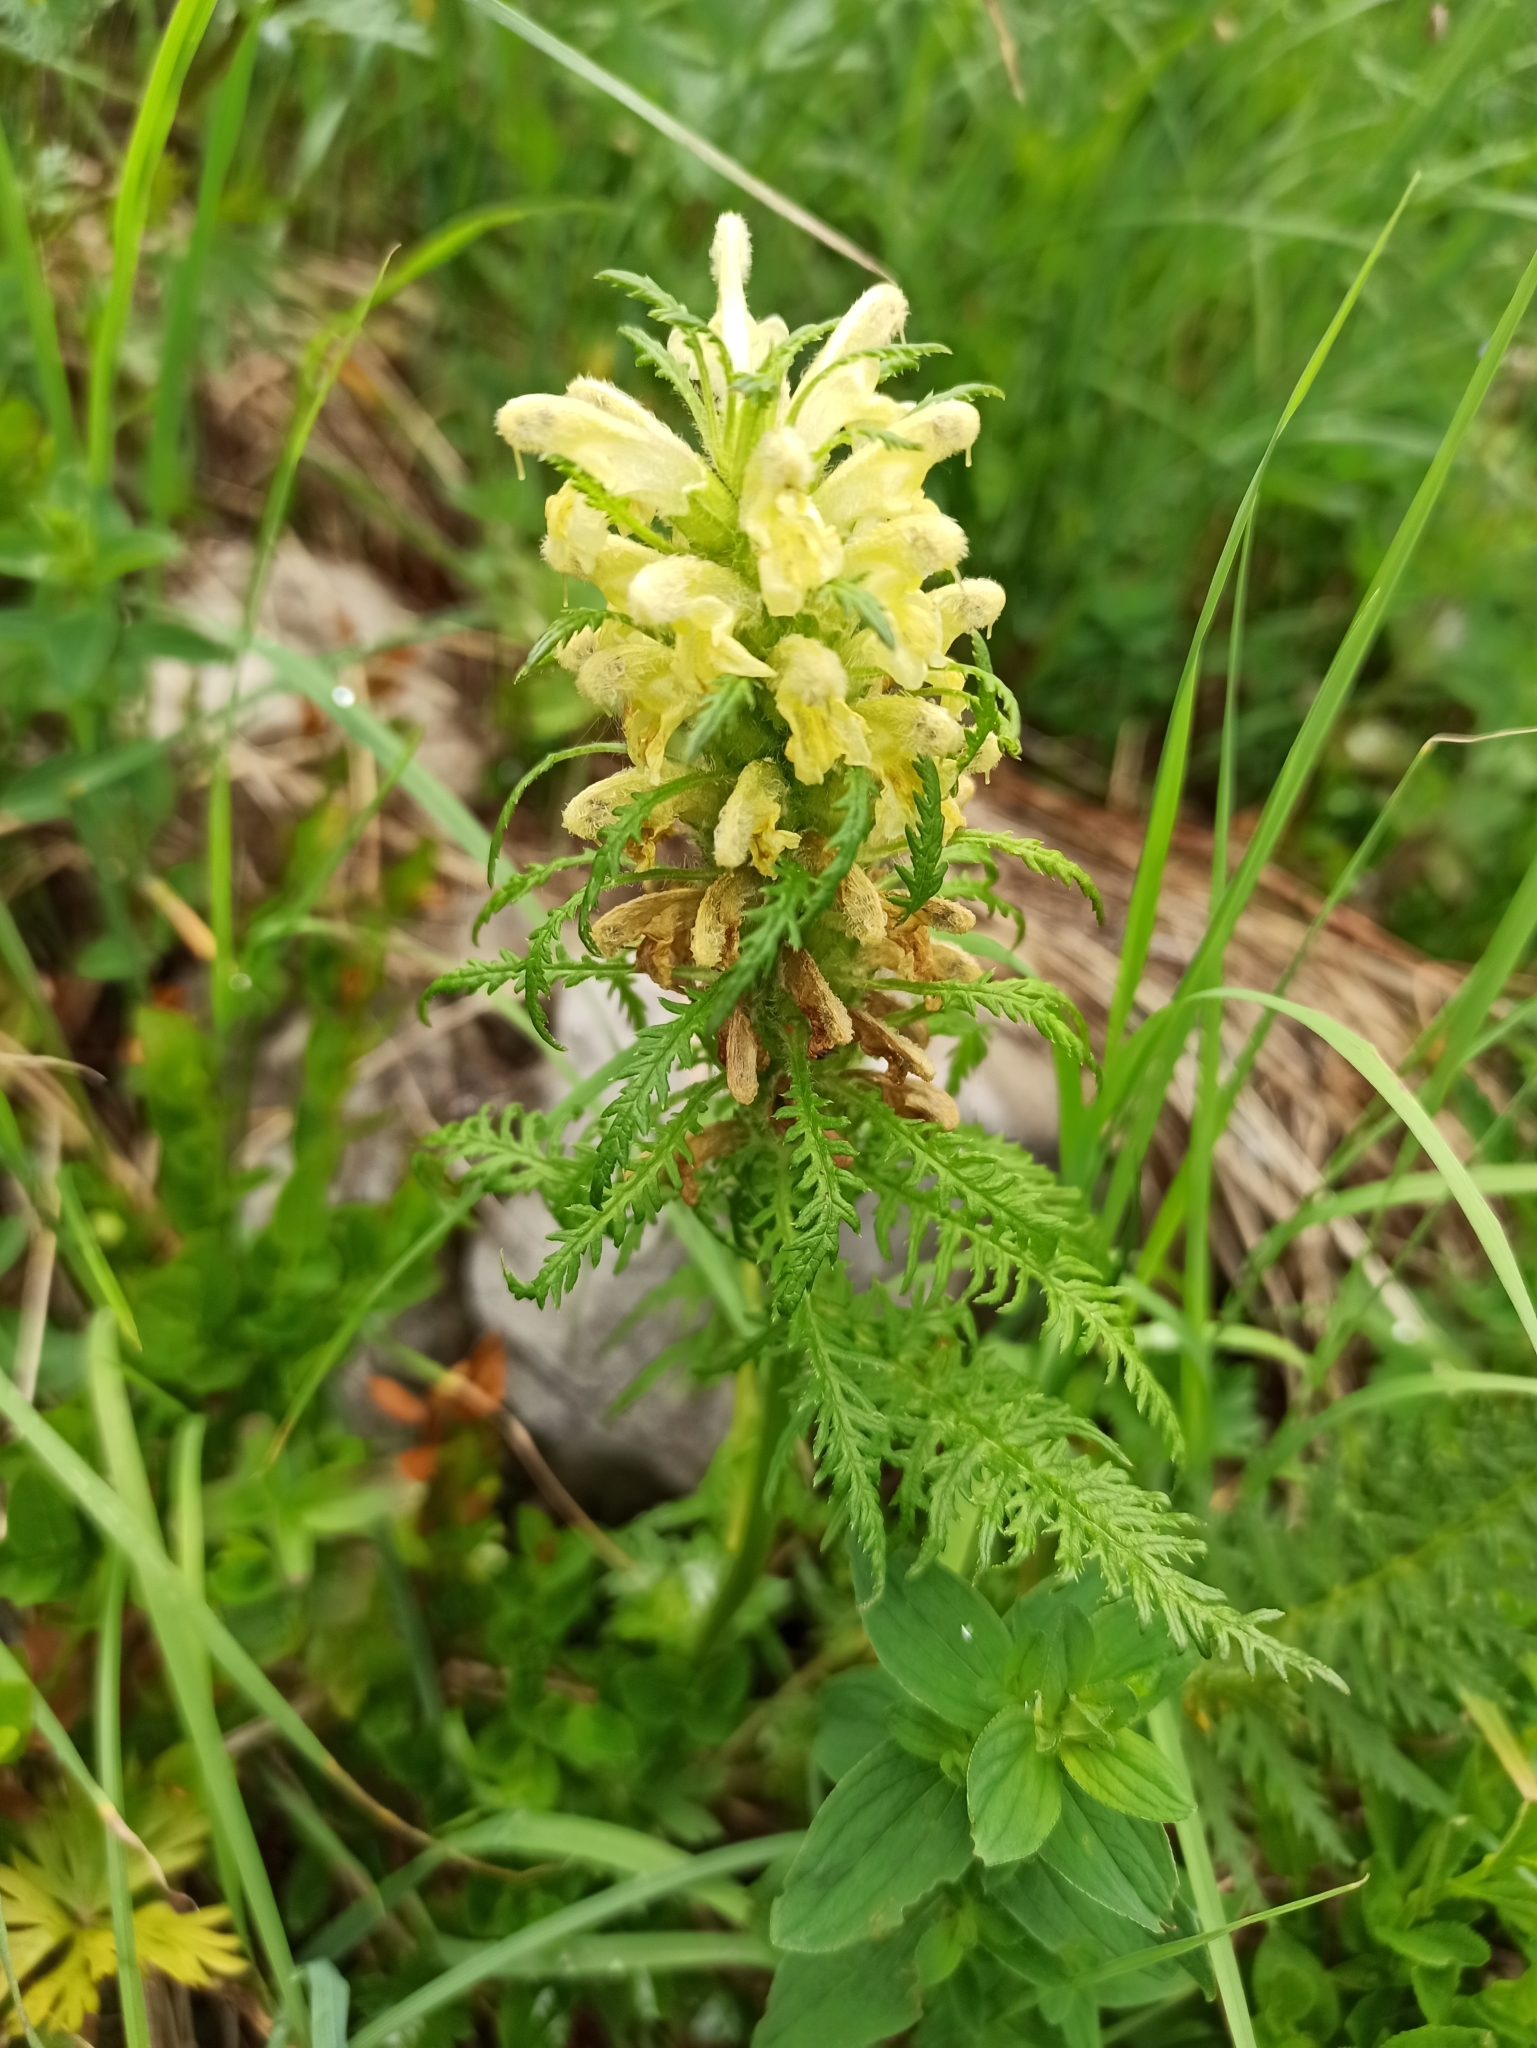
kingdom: Plantae
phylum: Tracheophyta
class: Magnoliopsida
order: Lamiales
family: Orobanchaceae
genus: Pedicularis
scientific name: Pedicularis foliosa
